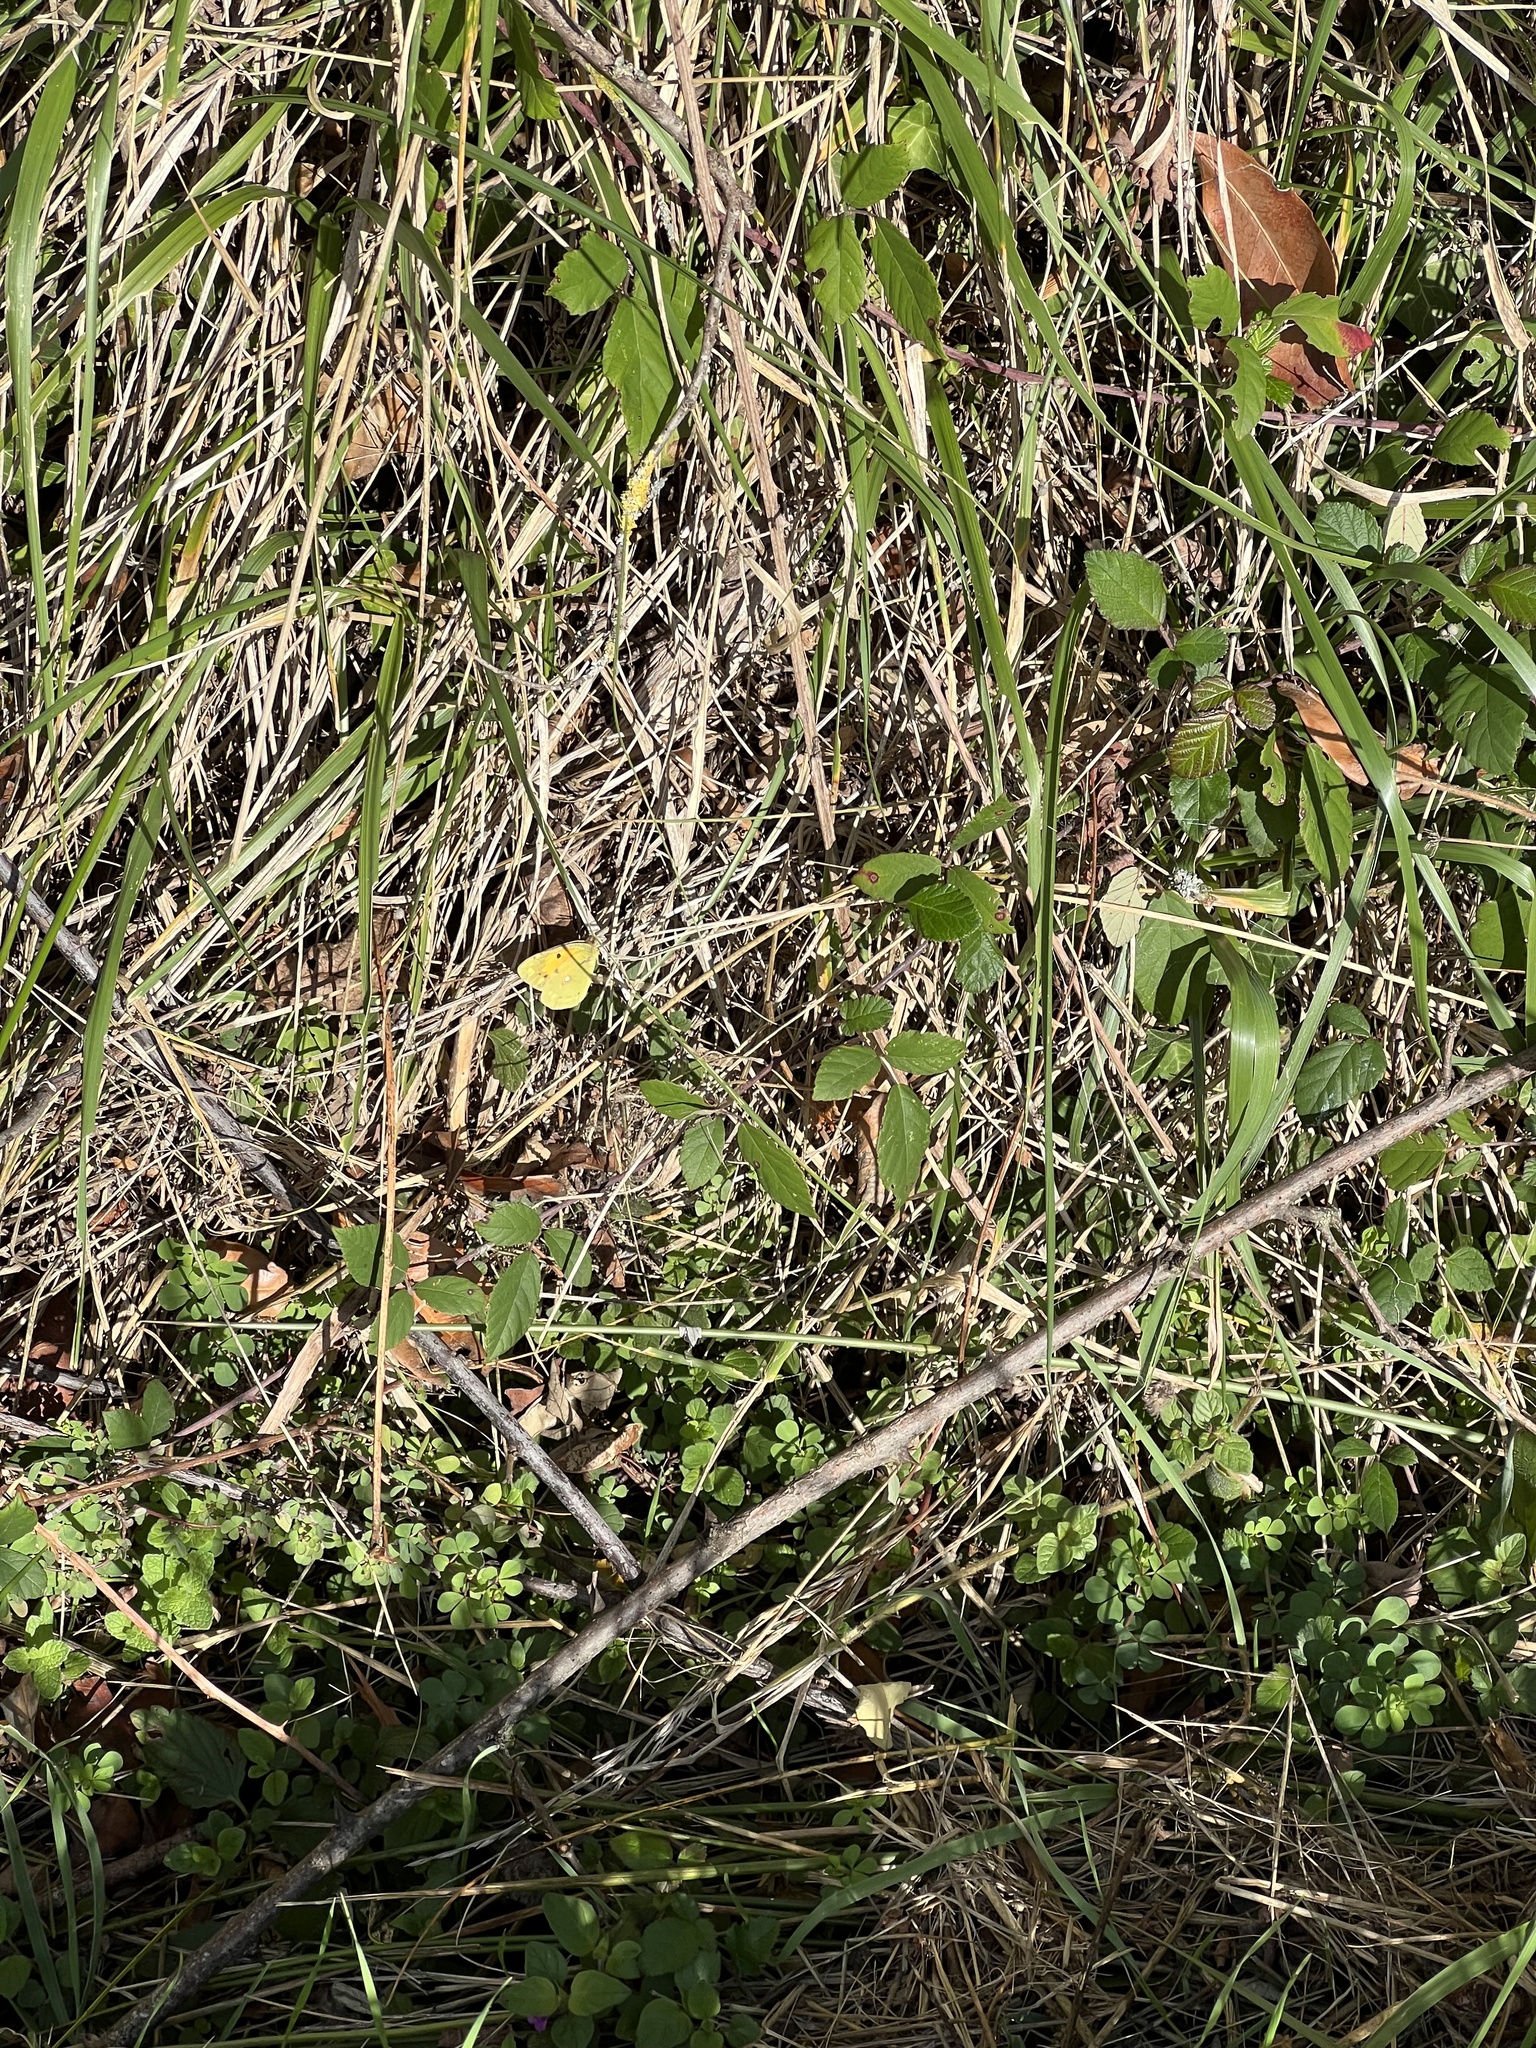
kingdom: Animalia
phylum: Arthropoda
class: Insecta
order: Lepidoptera
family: Pieridae
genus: Colias
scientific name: Colias croceus
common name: Clouded yellow
